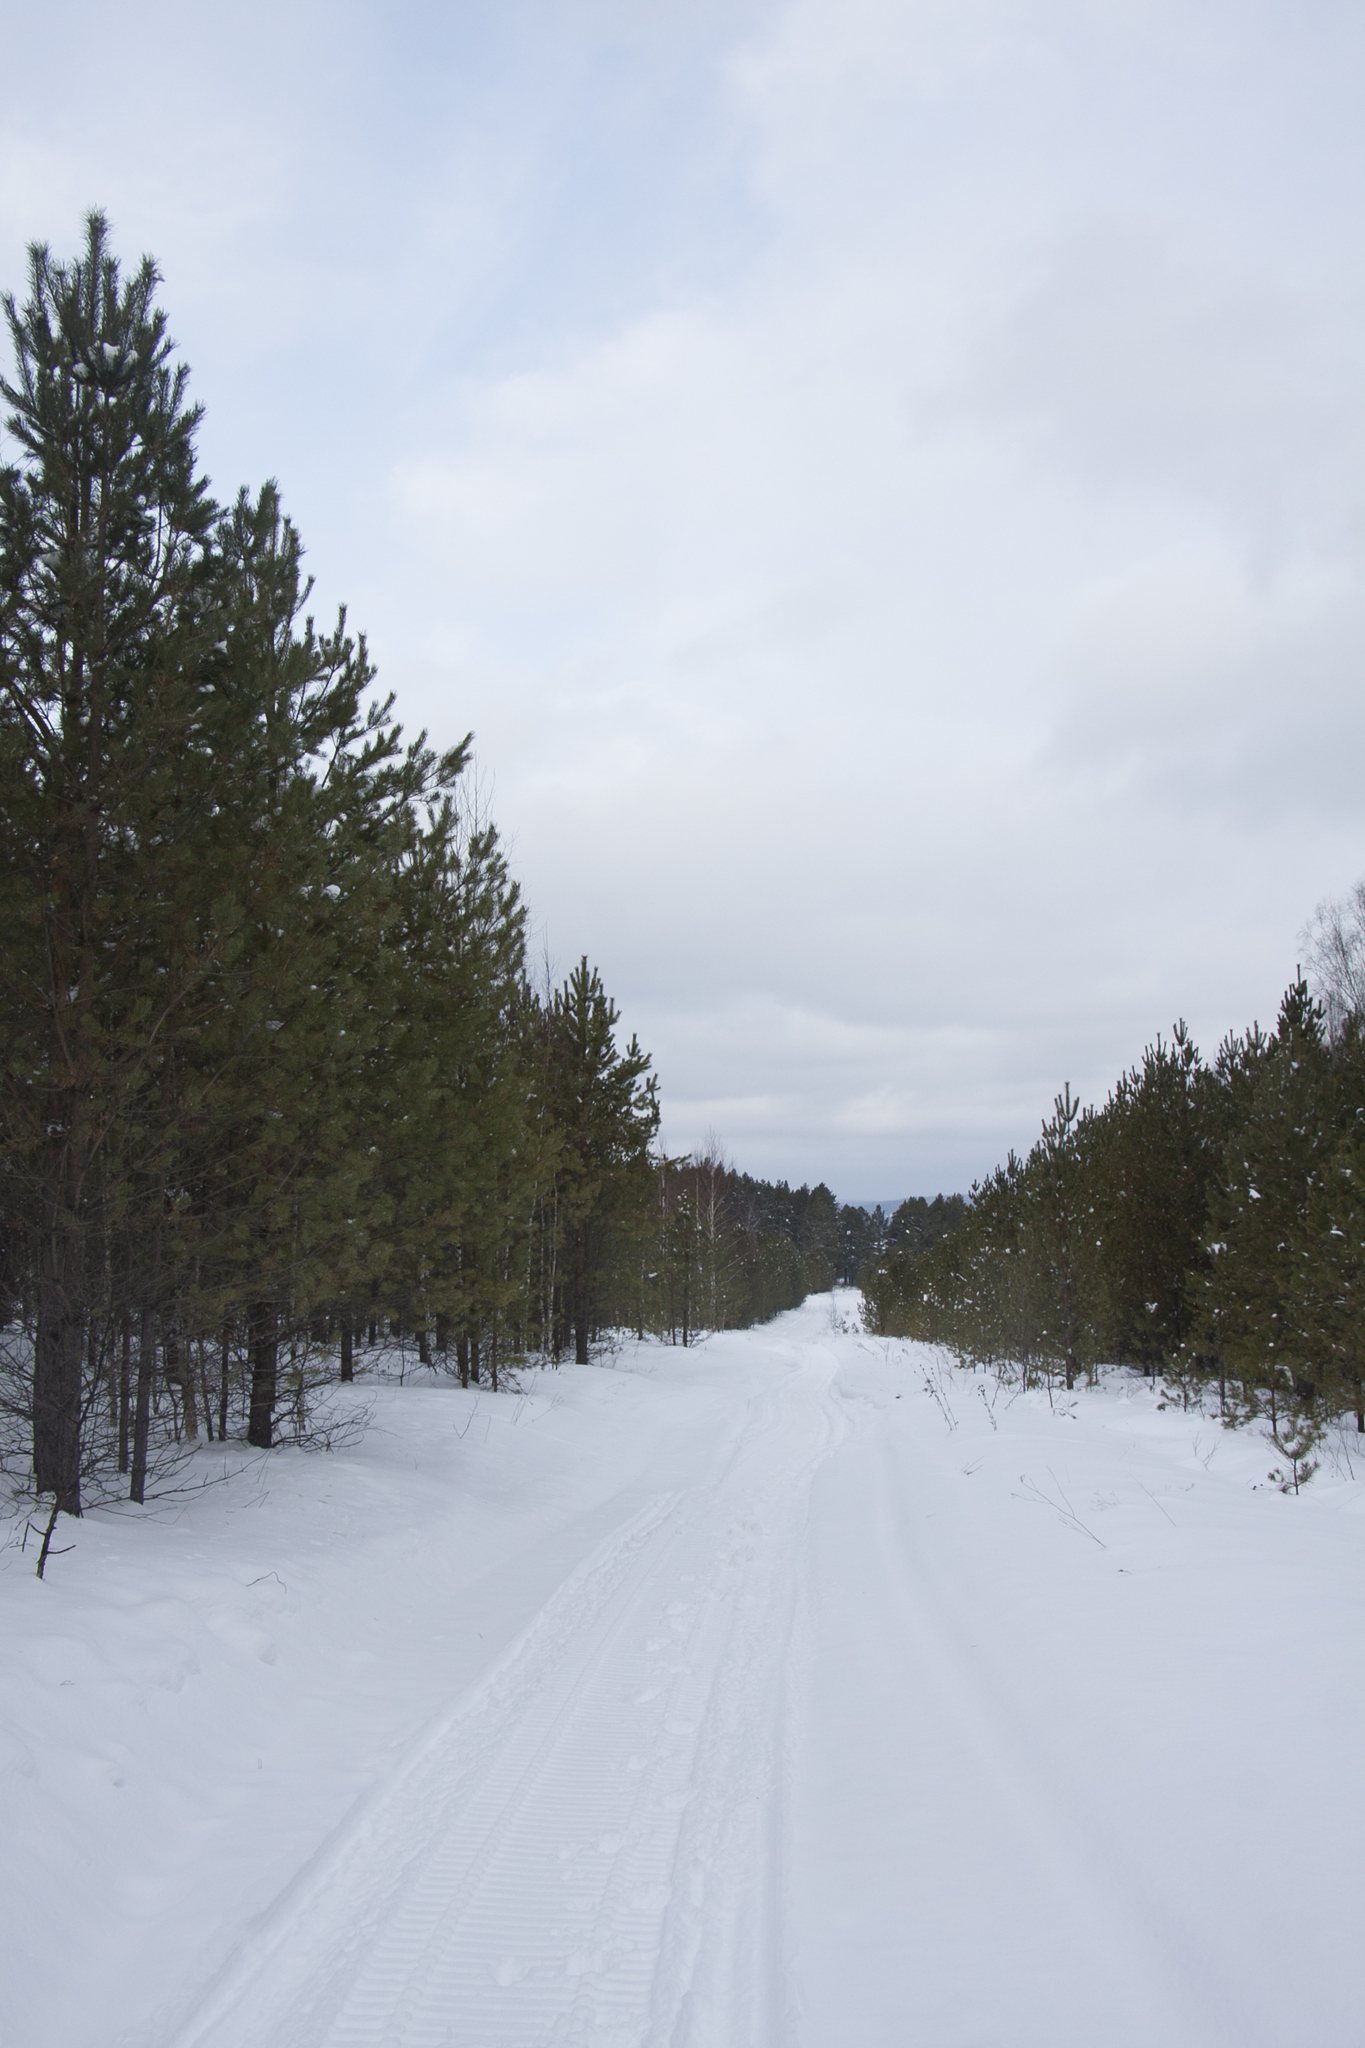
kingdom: Plantae
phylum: Tracheophyta
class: Pinopsida
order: Pinales
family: Pinaceae
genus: Pinus
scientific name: Pinus sylvestris
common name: Scots pine
